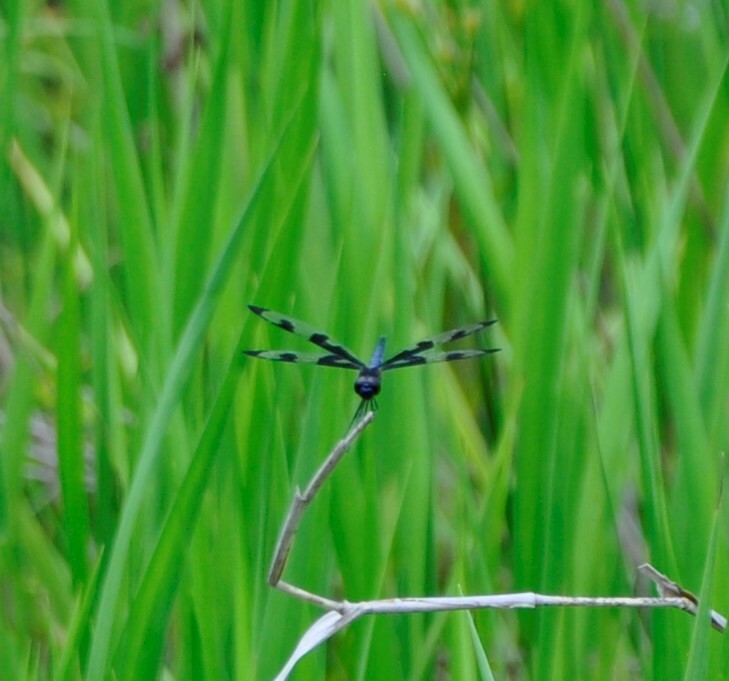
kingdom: Animalia
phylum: Arthropoda
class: Insecta
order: Odonata
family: Libellulidae
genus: Celithemis
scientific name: Celithemis fasciata
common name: Banded pennant
